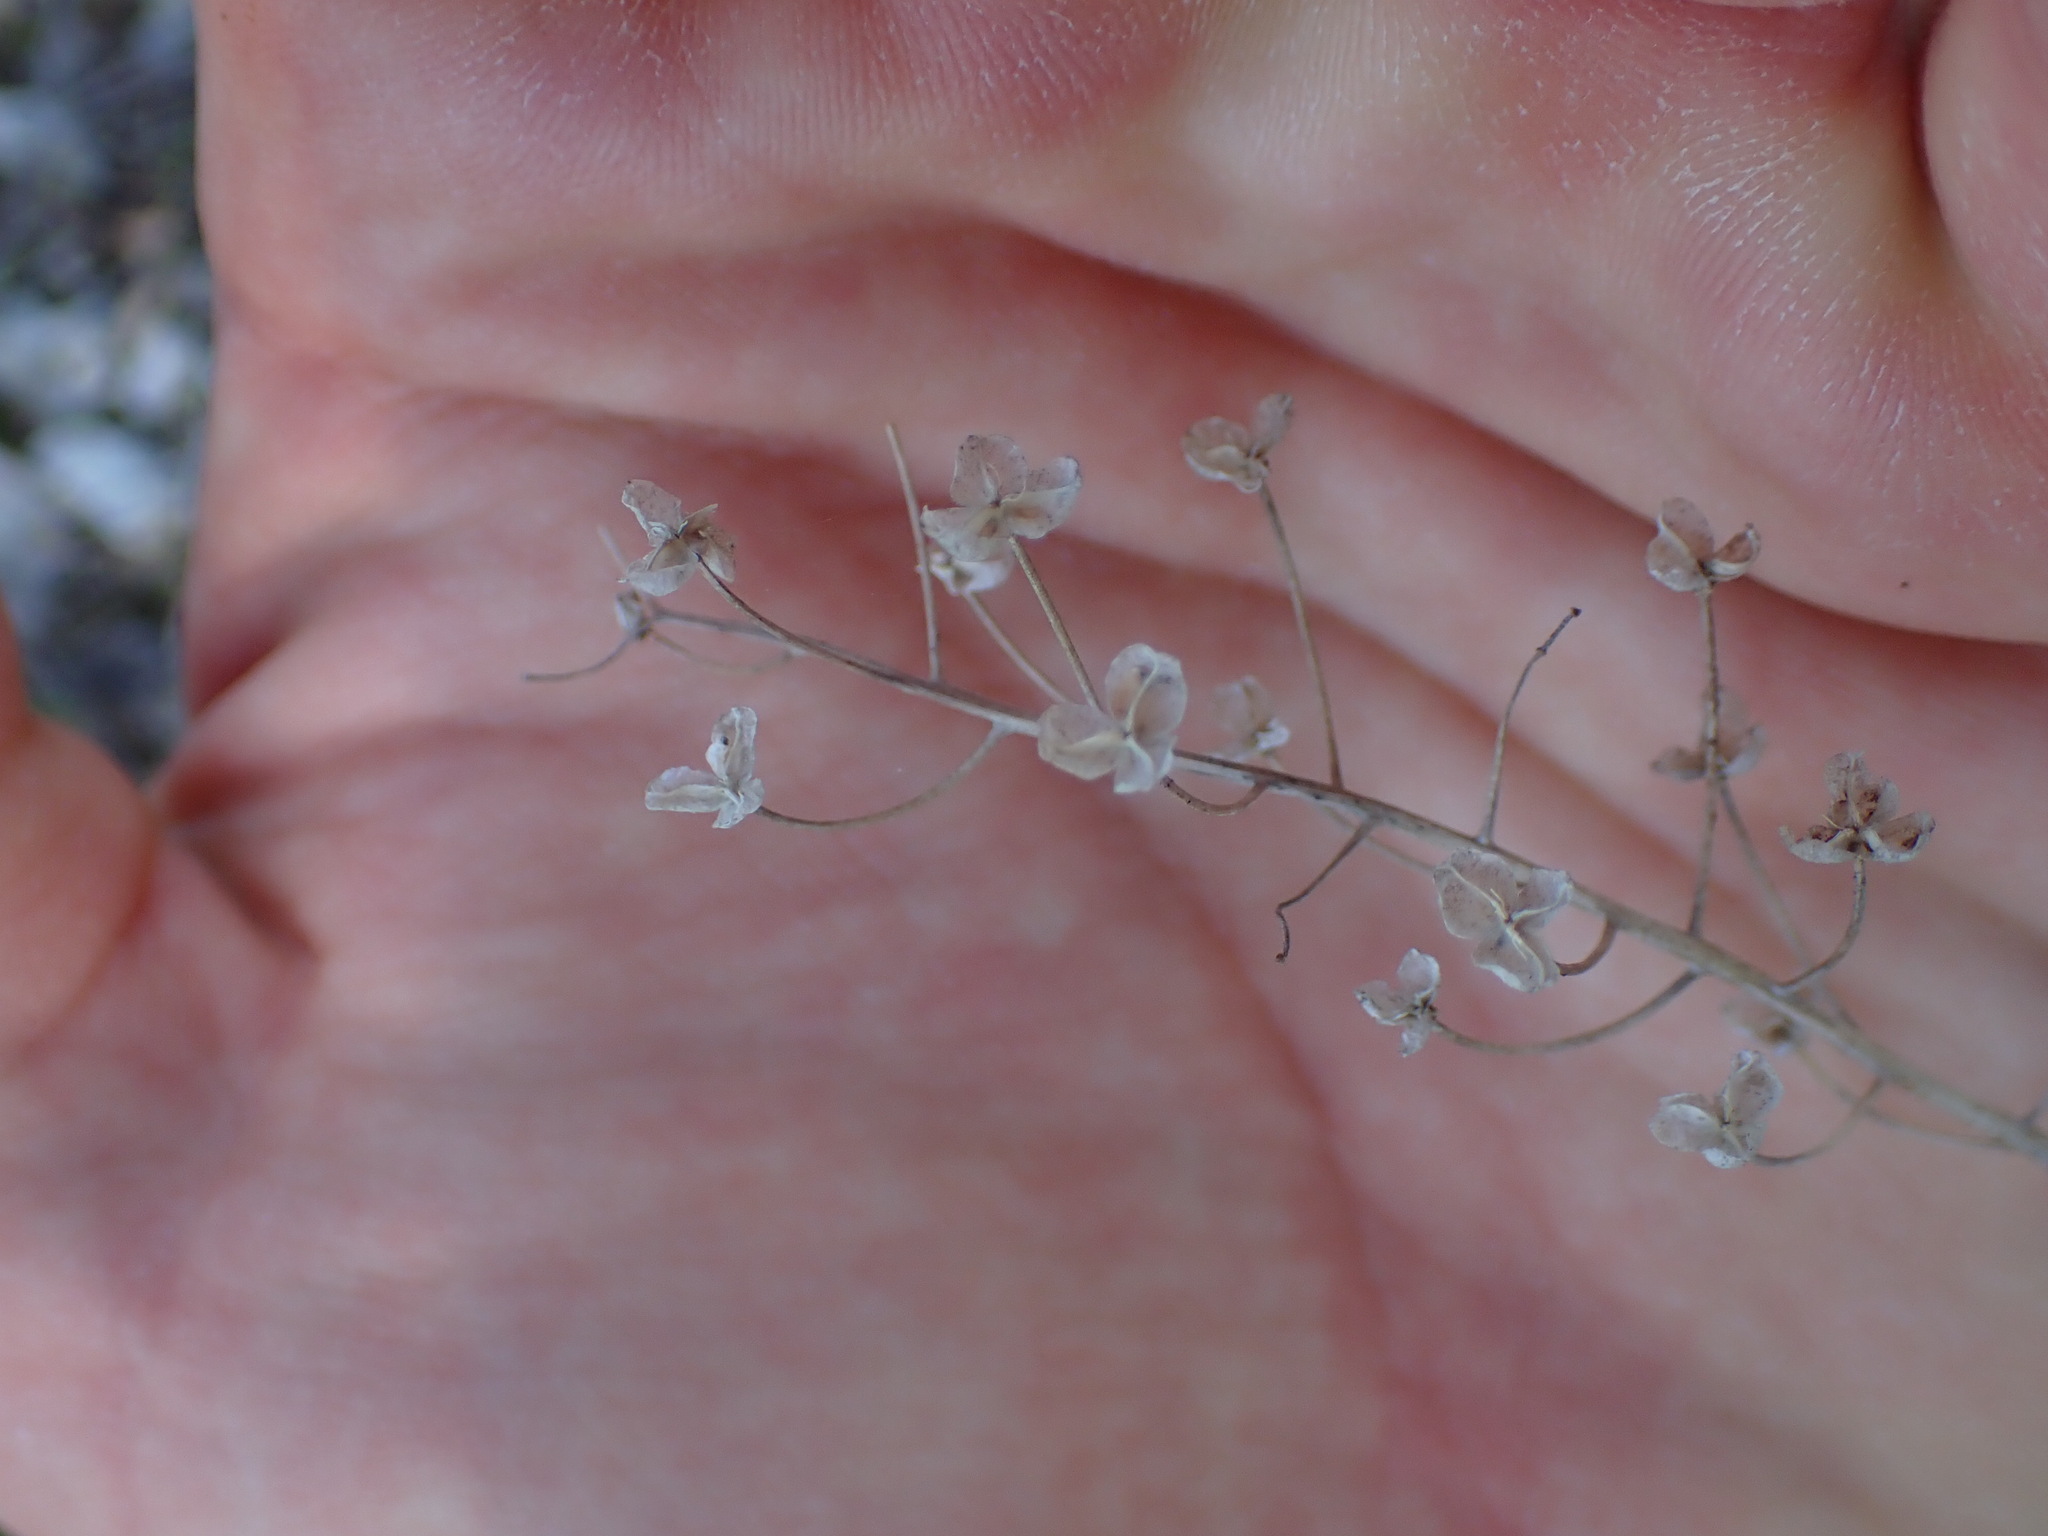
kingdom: Plantae
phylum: Tracheophyta
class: Liliopsida
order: Asparagales
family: Asparagaceae
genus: Prospero
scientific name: Prospero autumnale
